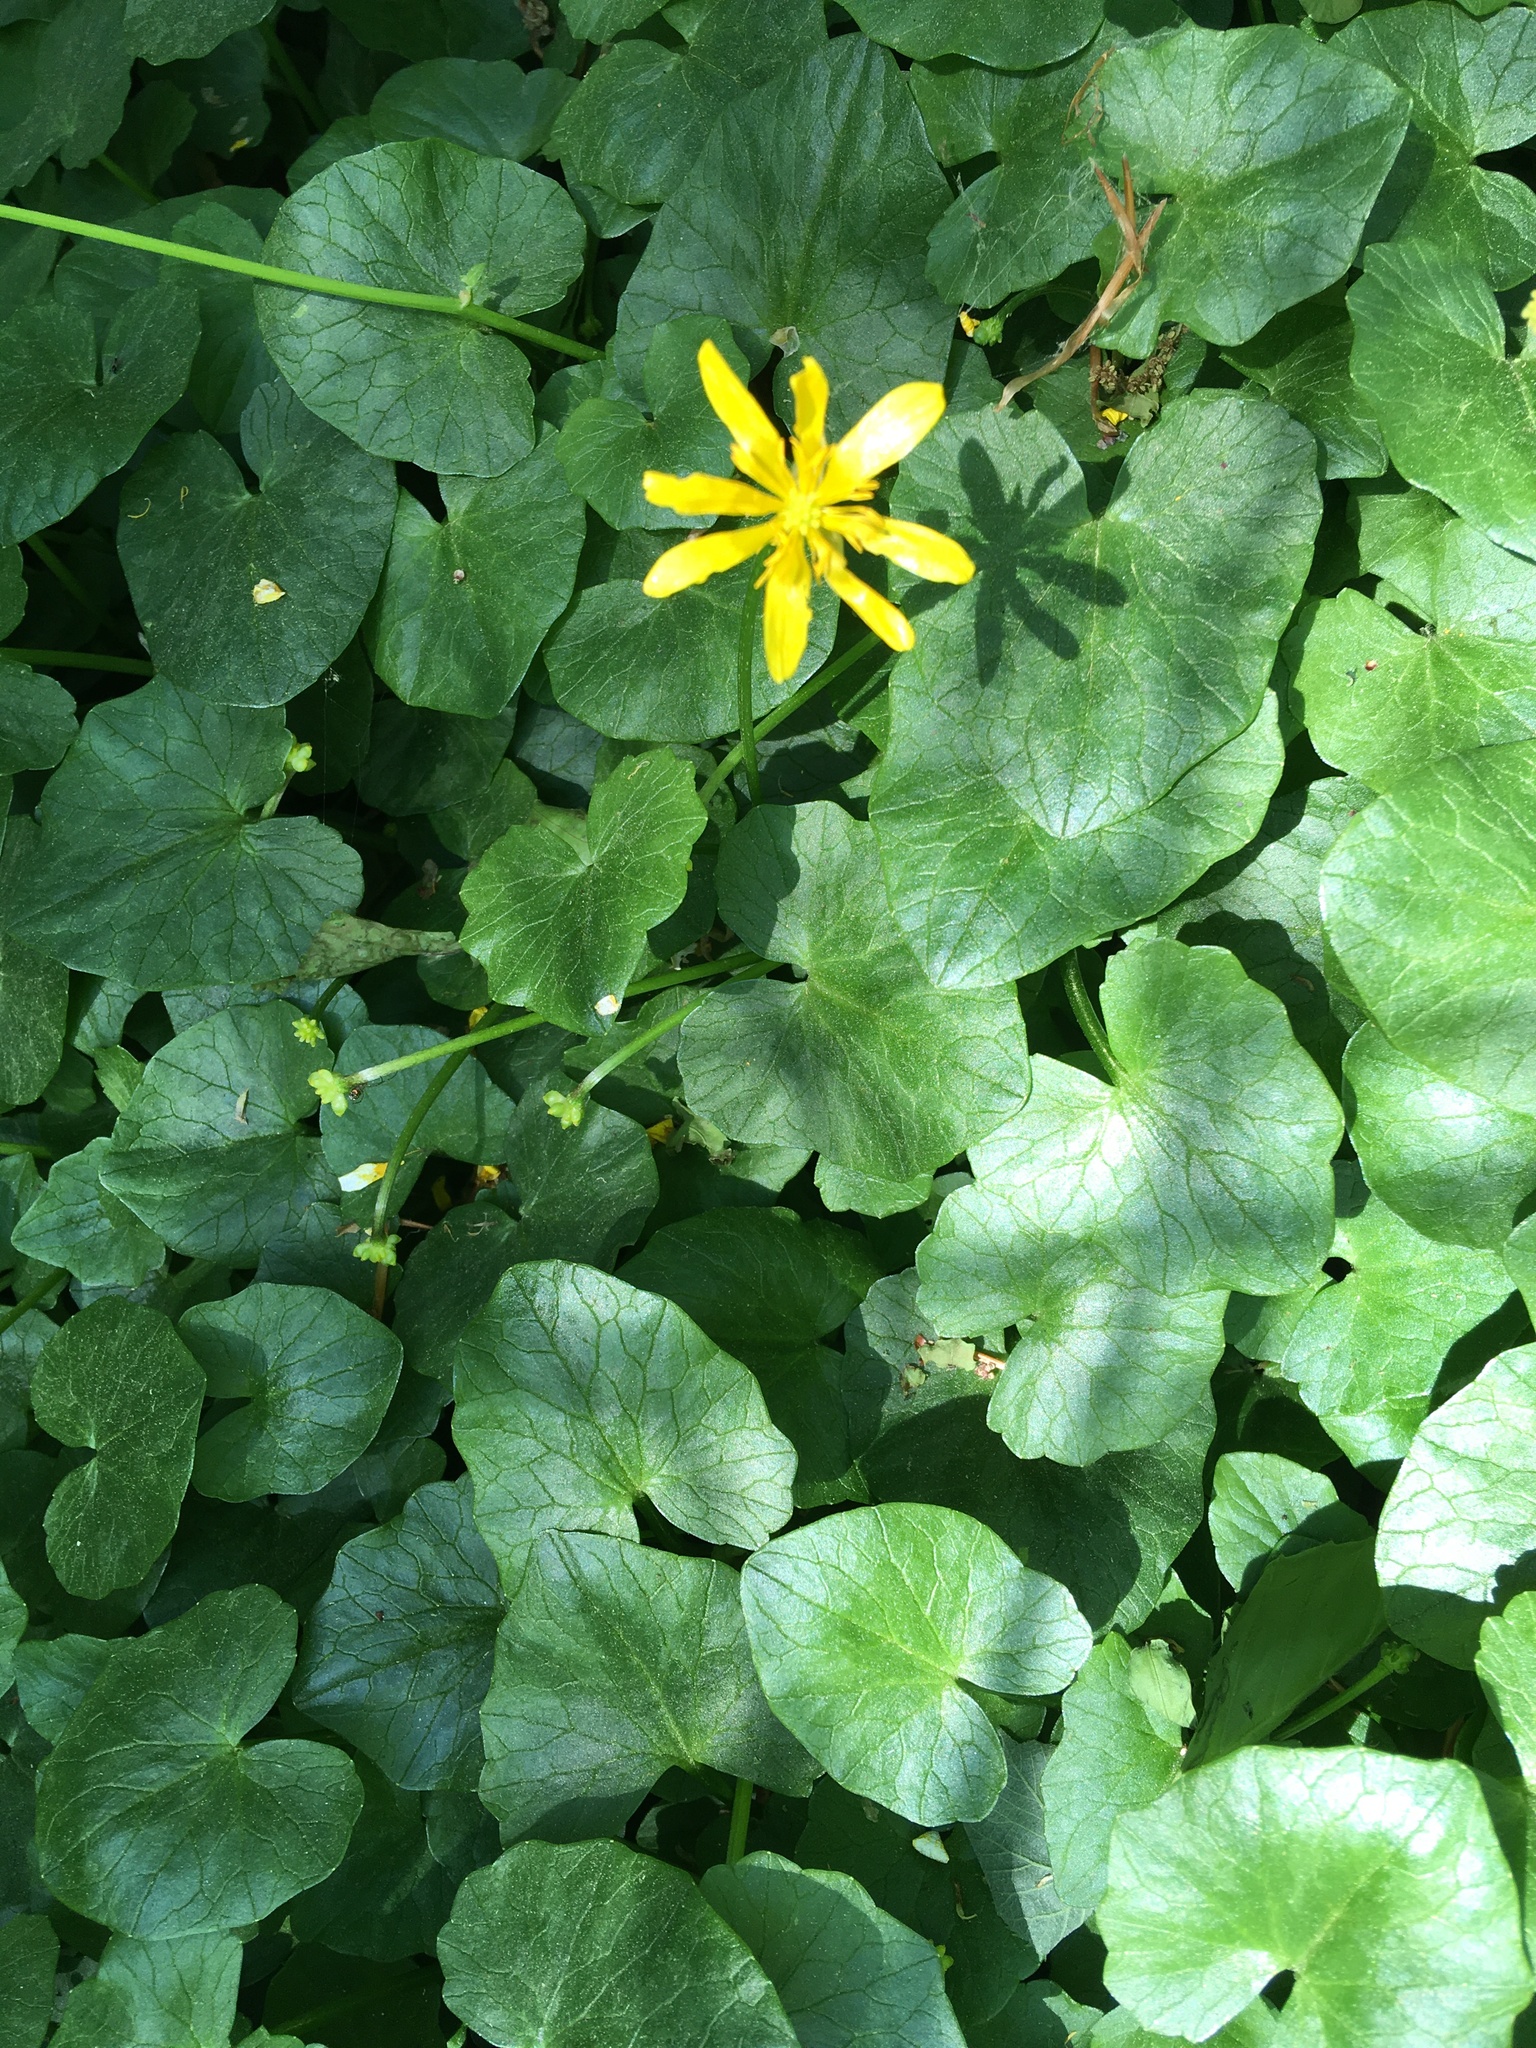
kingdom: Plantae
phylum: Tracheophyta
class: Magnoliopsida
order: Ranunculales
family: Ranunculaceae
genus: Ficaria
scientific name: Ficaria verna
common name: Lesser celandine
